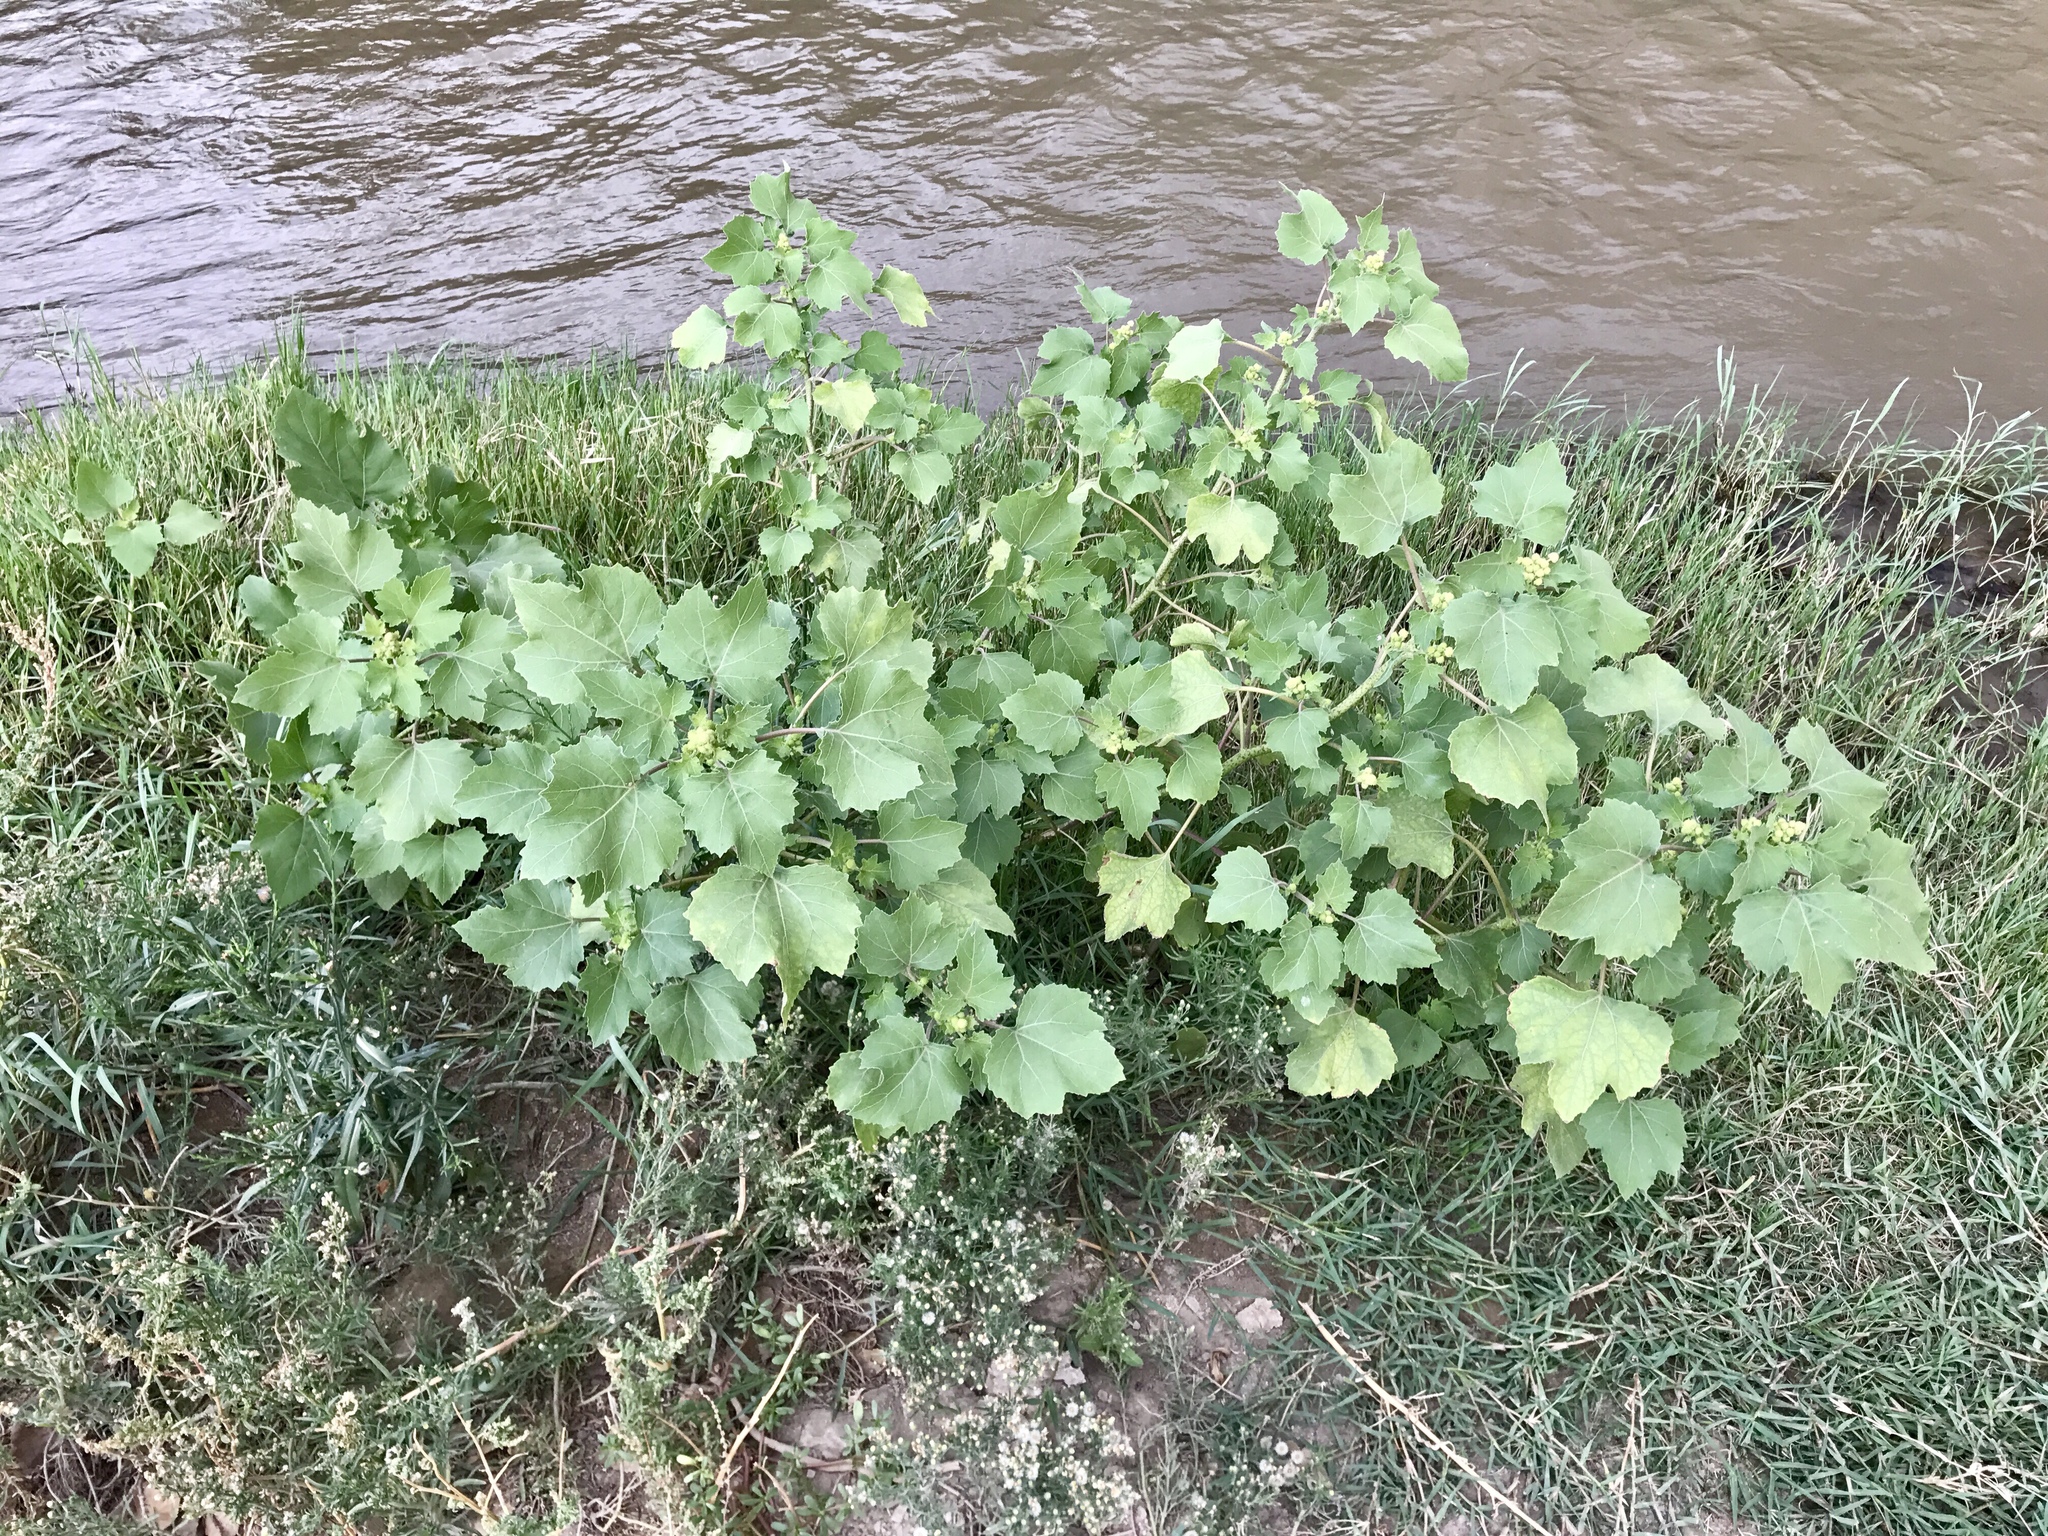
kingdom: Plantae
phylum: Tracheophyta
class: Magnoliopsida
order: Asterales
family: Asteraceae
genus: Xanthium
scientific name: Xanthium strumarium
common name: Rough cocklebur
